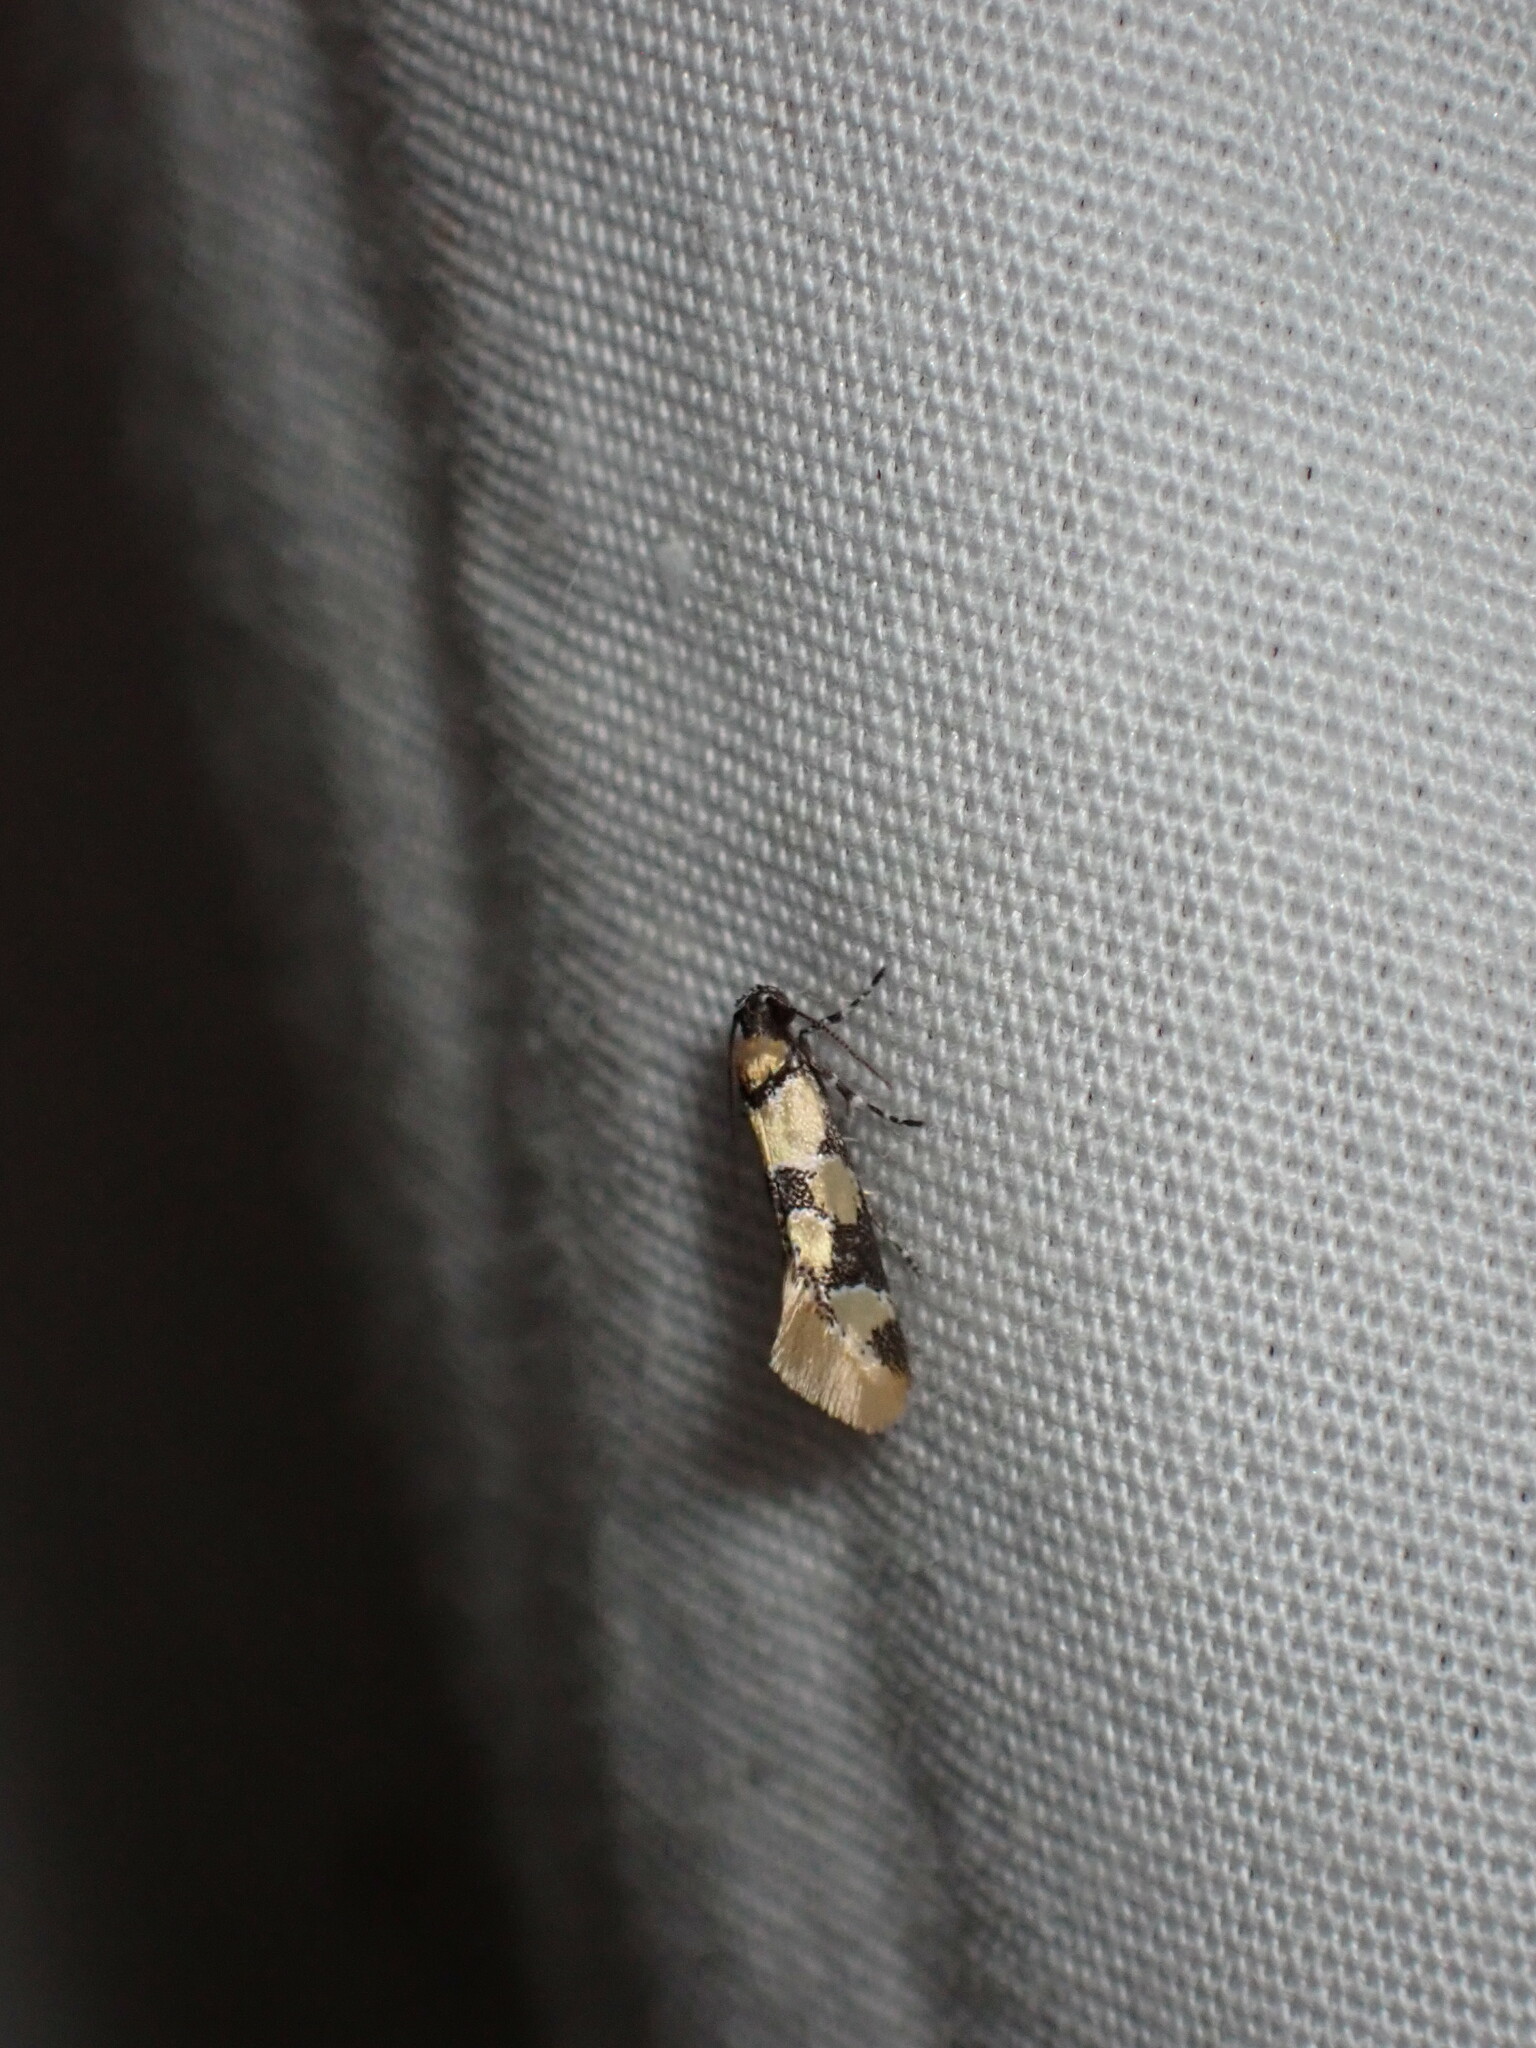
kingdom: Animalia
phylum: Arthropoda
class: Insecta
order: Lepidoptera
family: Oecophoridae
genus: Decantha
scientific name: Decantha stonda
